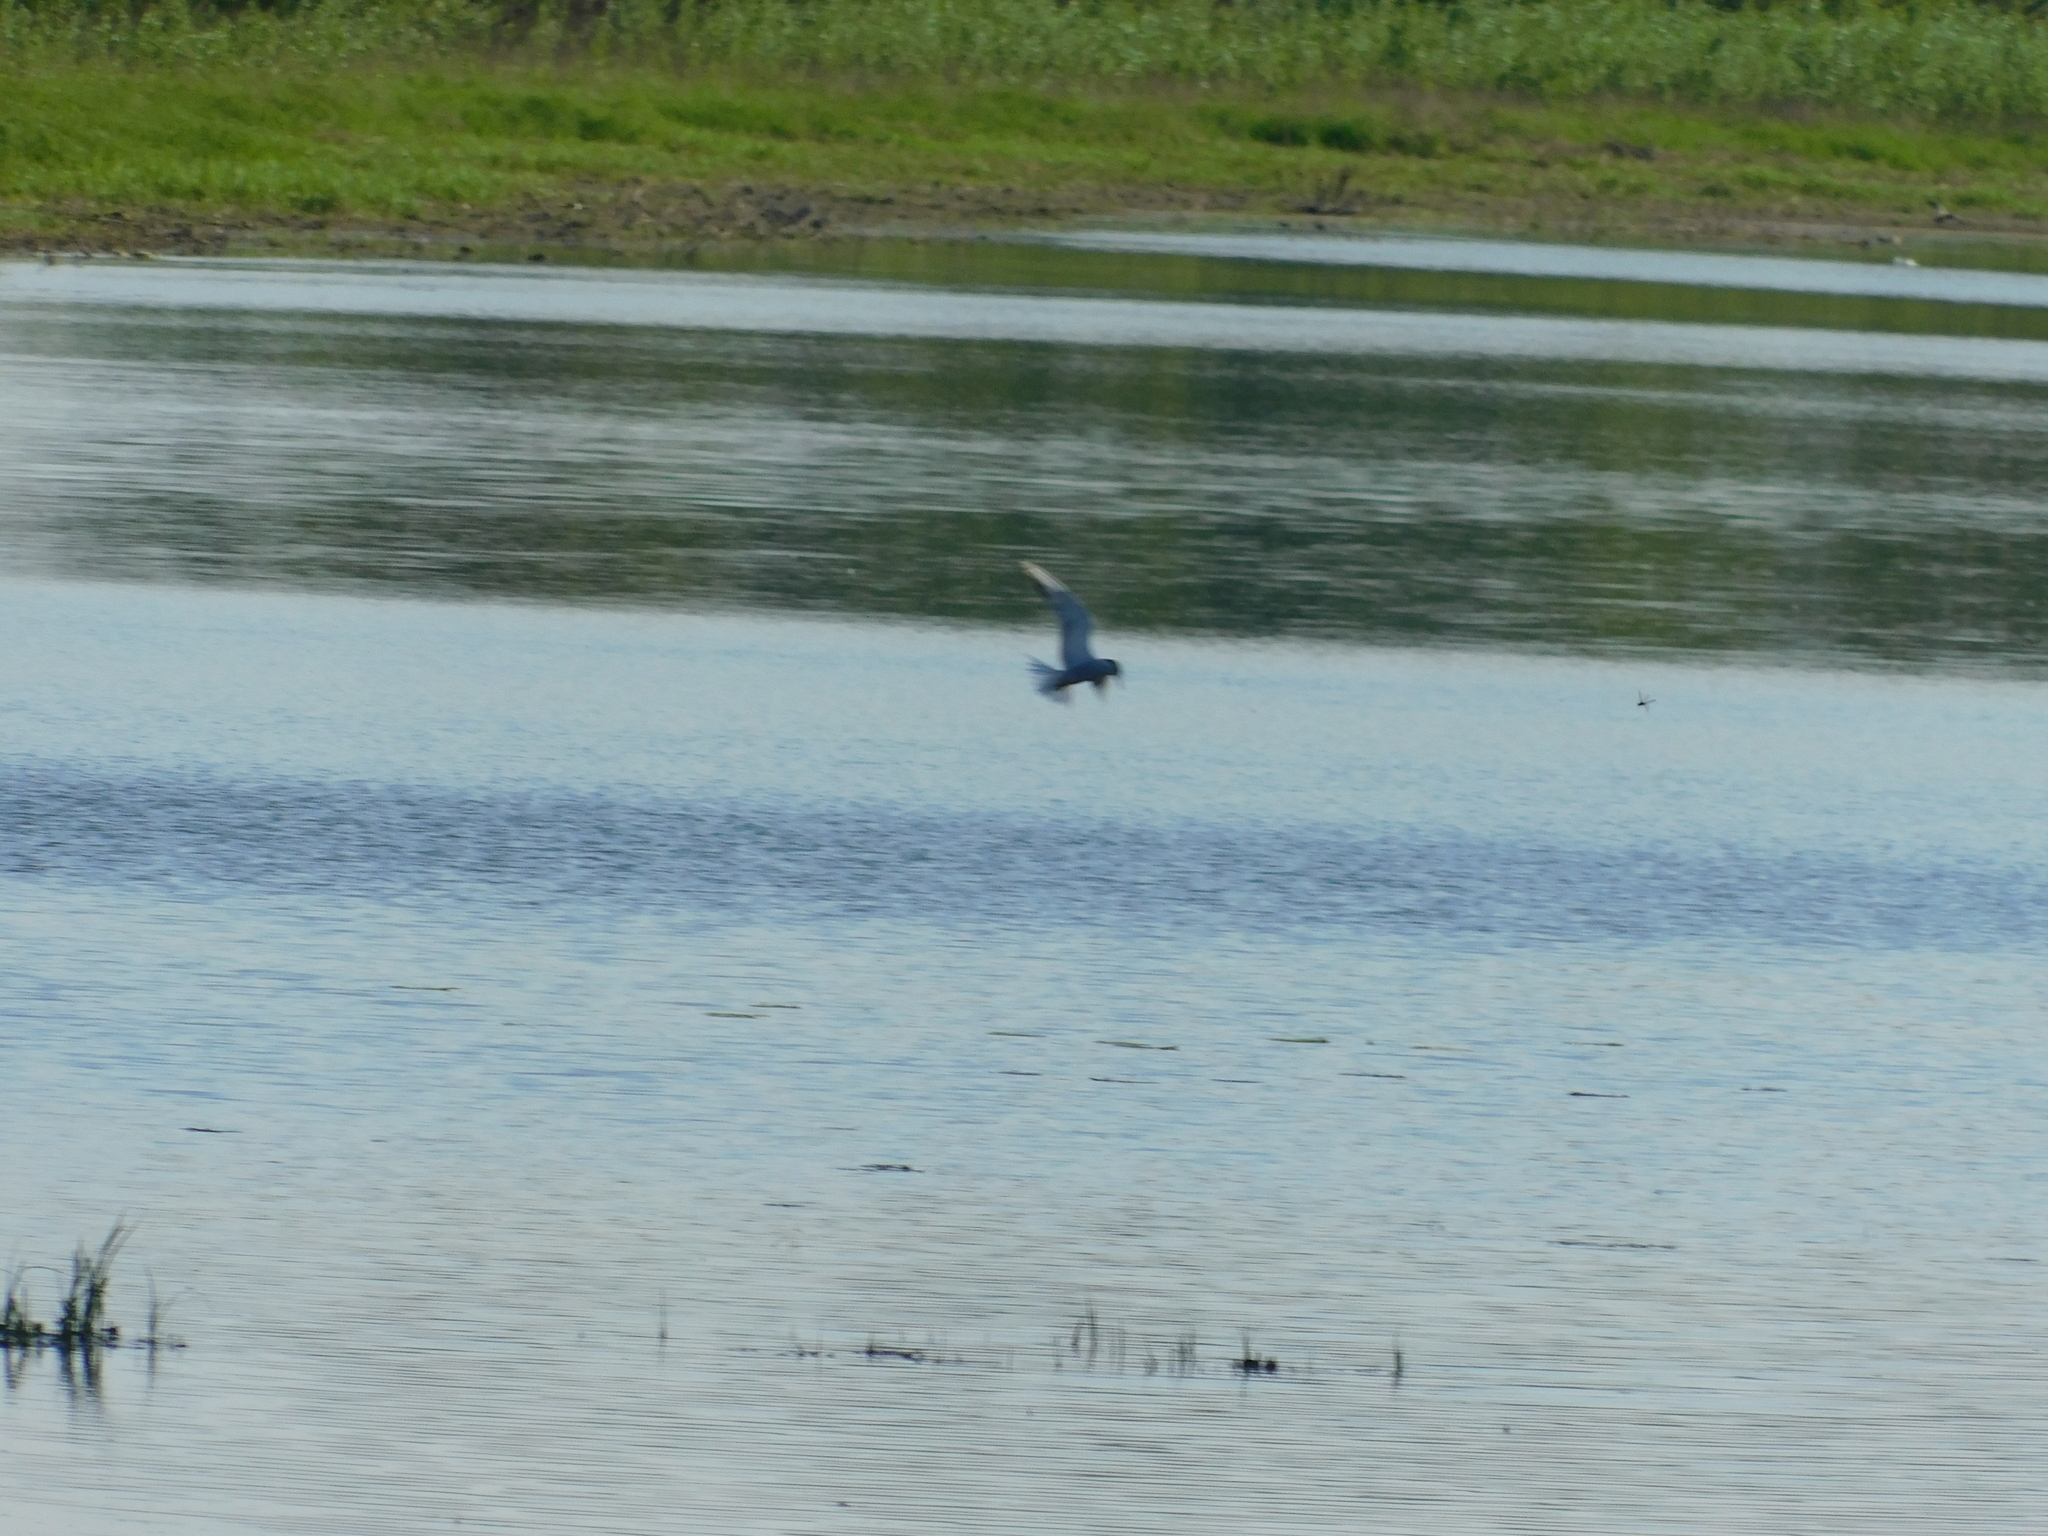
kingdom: Animalia
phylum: Chordata
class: Aves
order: Charadriiformes
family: Laridae
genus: Sterna
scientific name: Sterna hirundo
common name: Common tern
